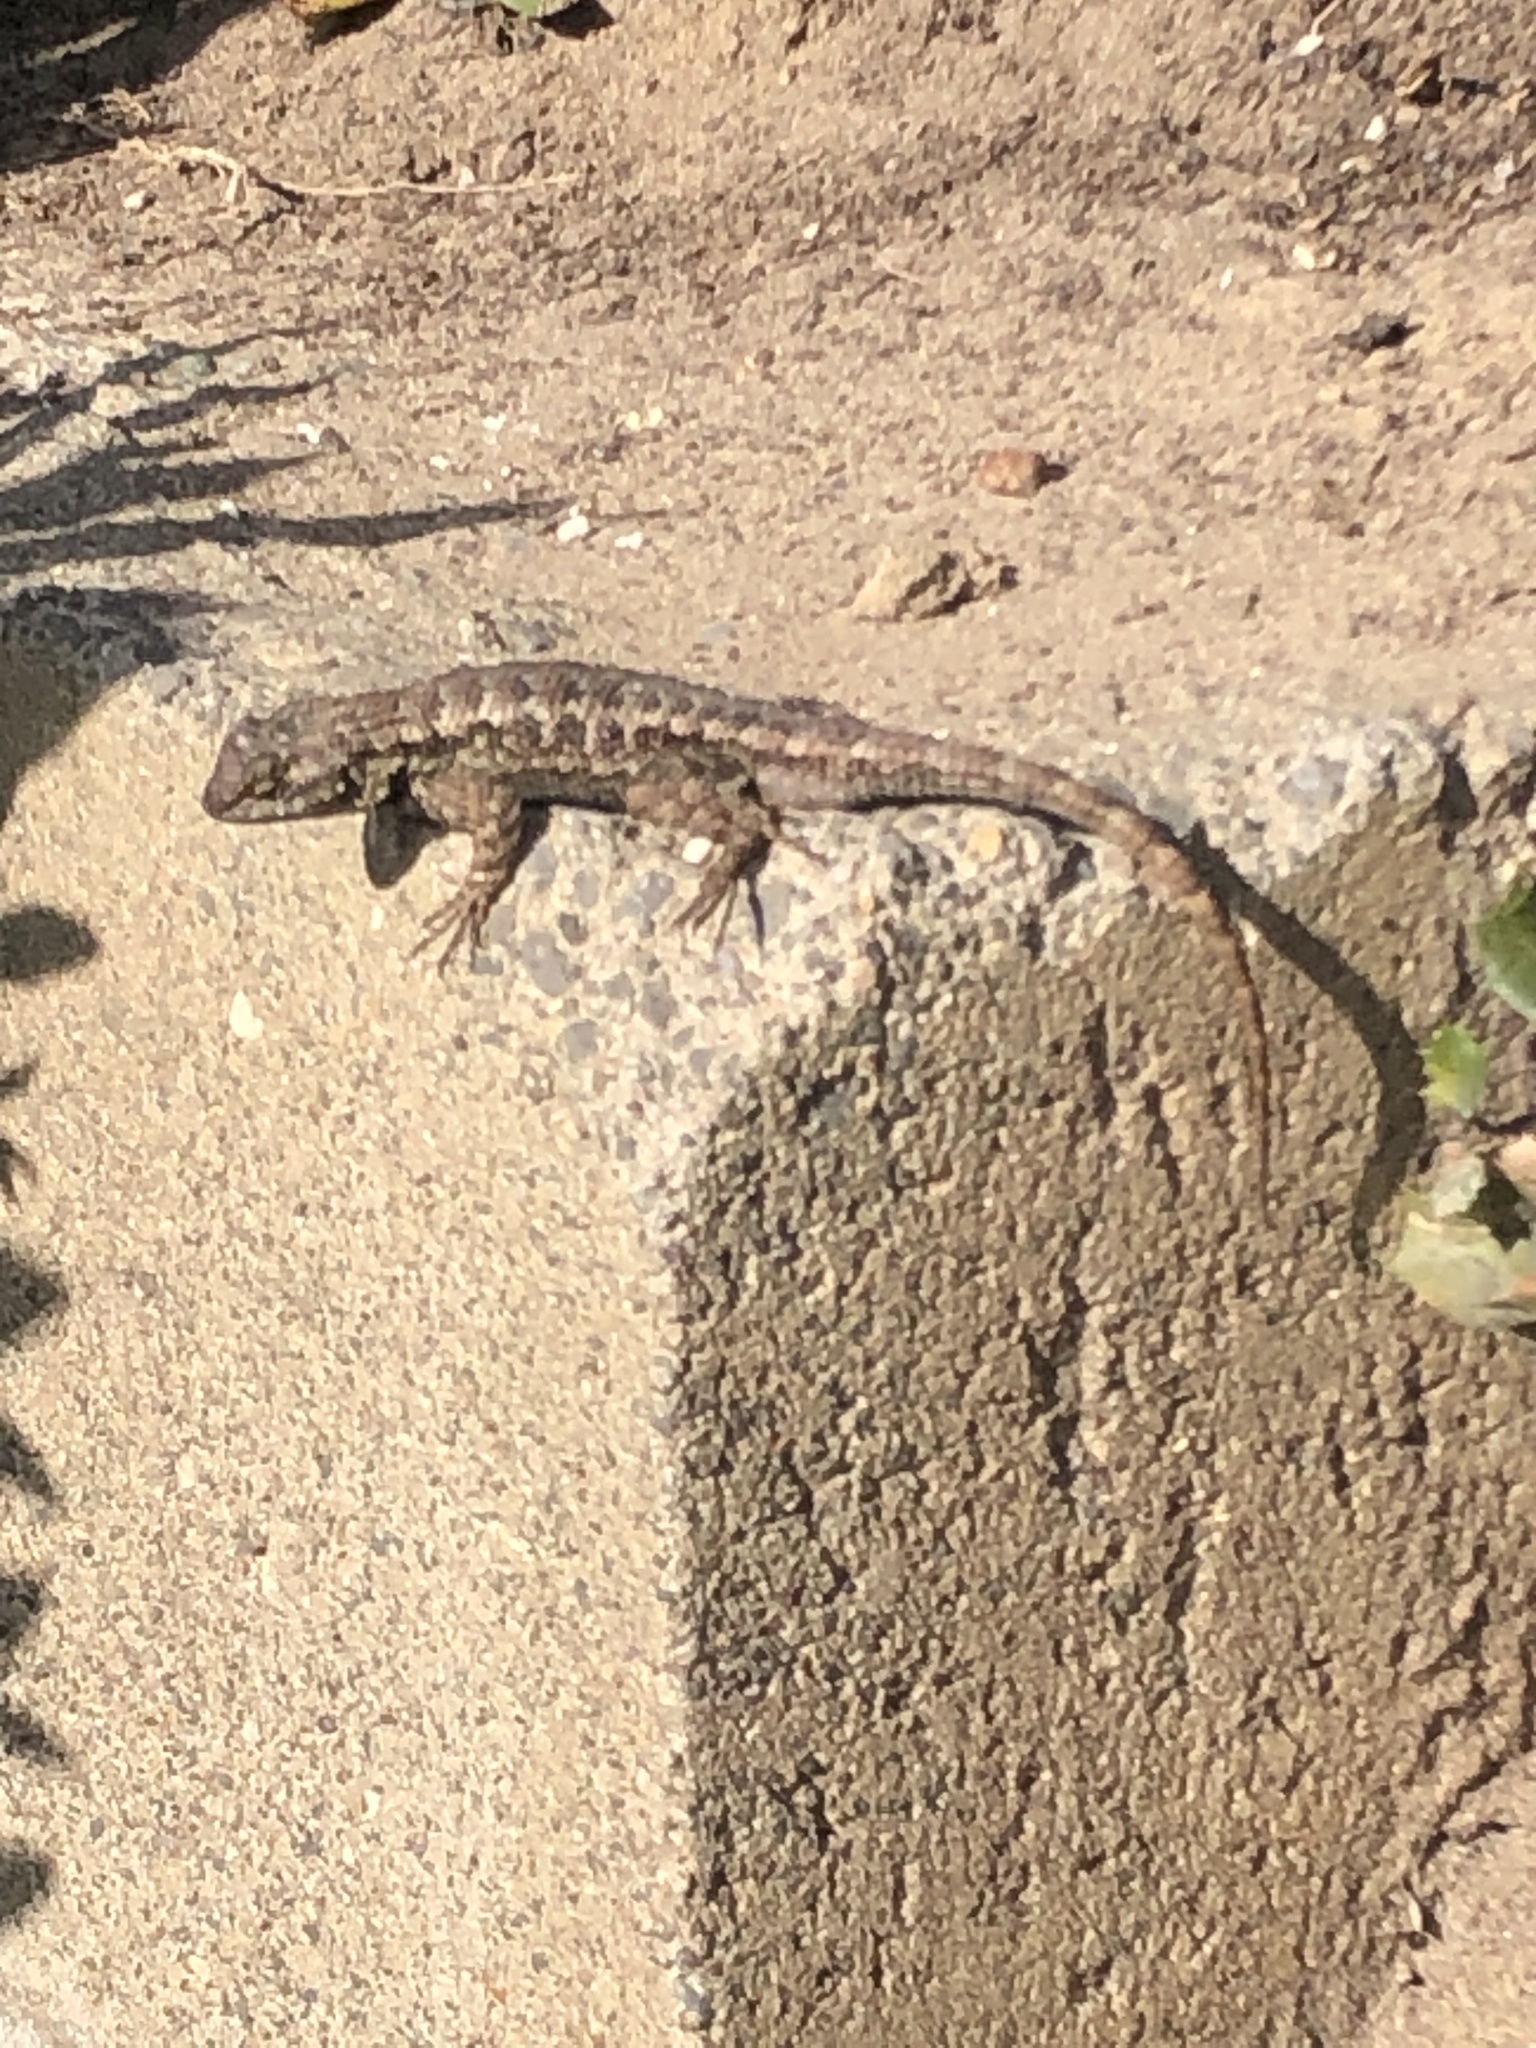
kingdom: Animalia
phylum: Chordata
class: Squamata
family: Phrynosomatidae
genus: Sceloporus
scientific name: Sceloporus occidentalis
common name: Western fence lizard
